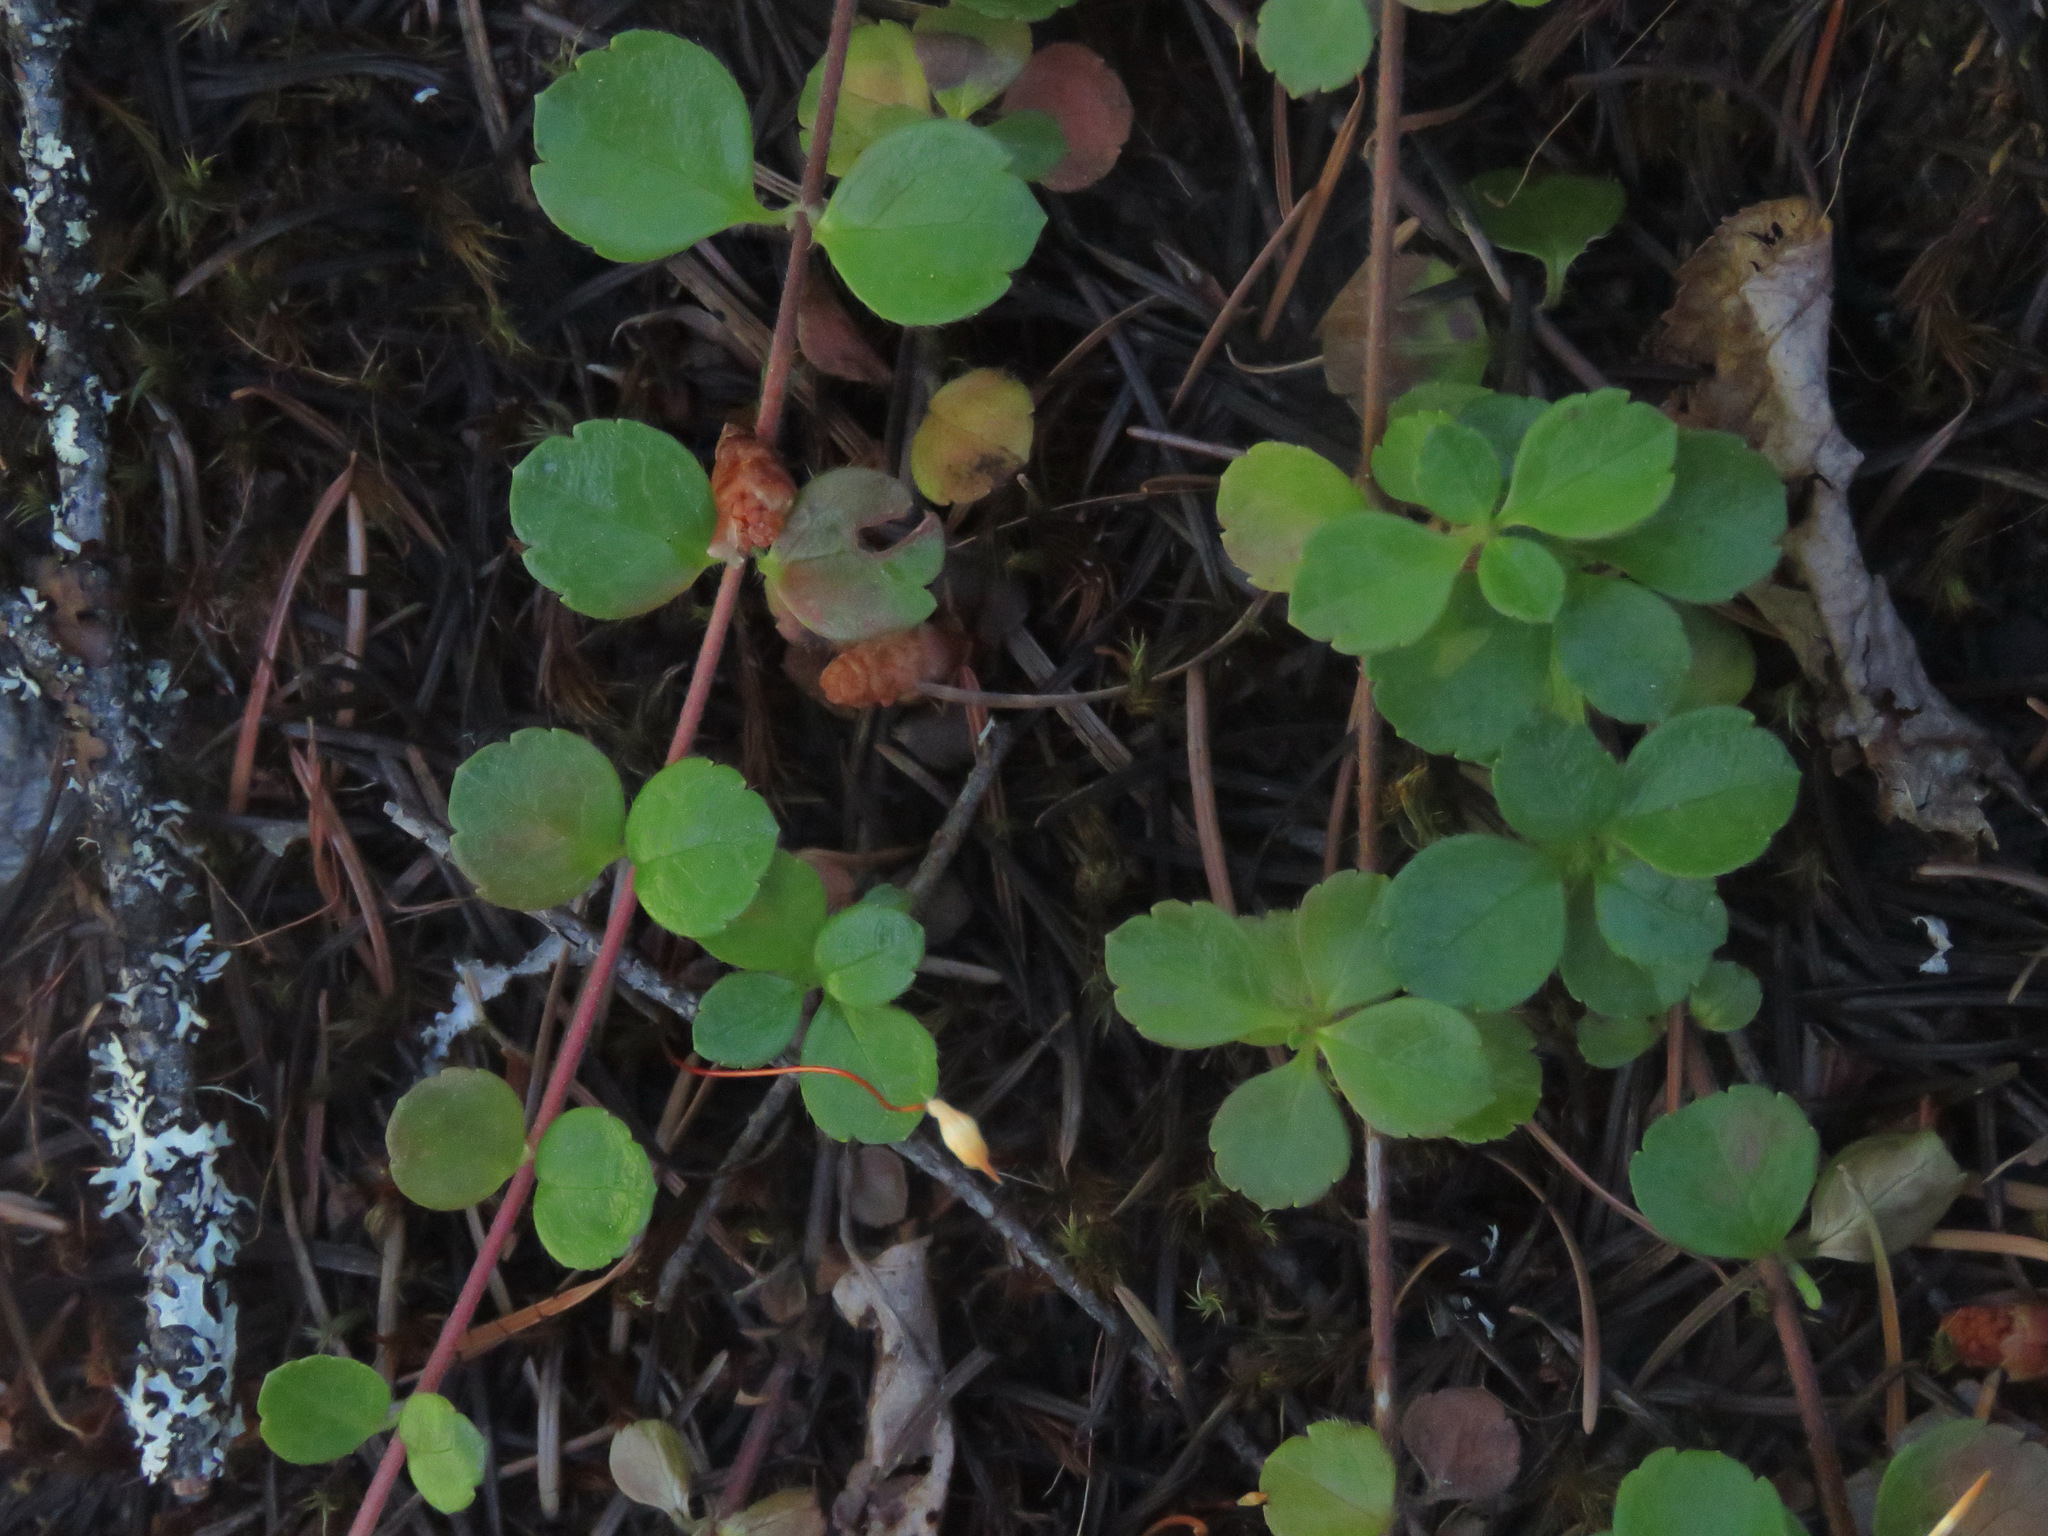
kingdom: Plantae
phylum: Tracheophyta
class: Magnoliopsida
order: Dipsacales
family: Caprifoliaceae
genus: Linnaea
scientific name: Linnaea borealis
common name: Twinflower
